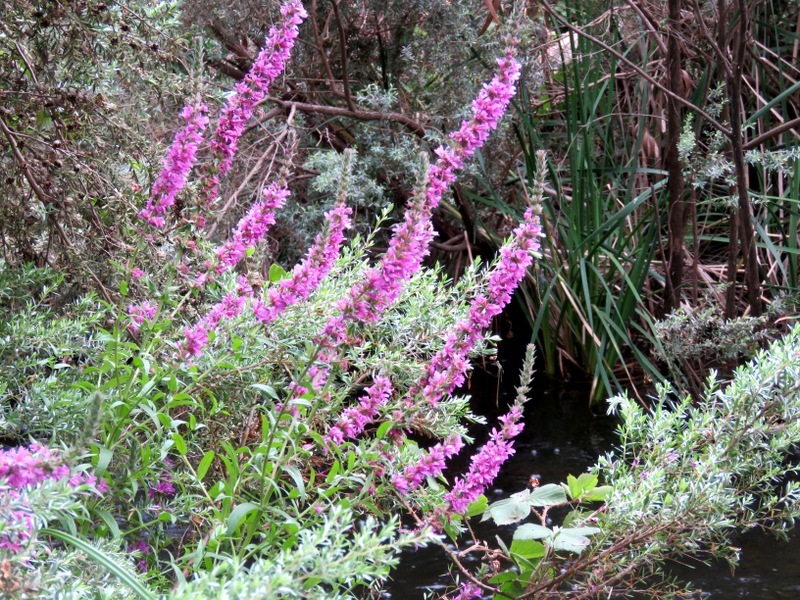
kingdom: Plantae
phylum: Tracheophyta
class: Magnoliopsida
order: Myrtales
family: Lythraceae
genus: Lythrum
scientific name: Lythrum salicaria
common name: Purple loosestrife
